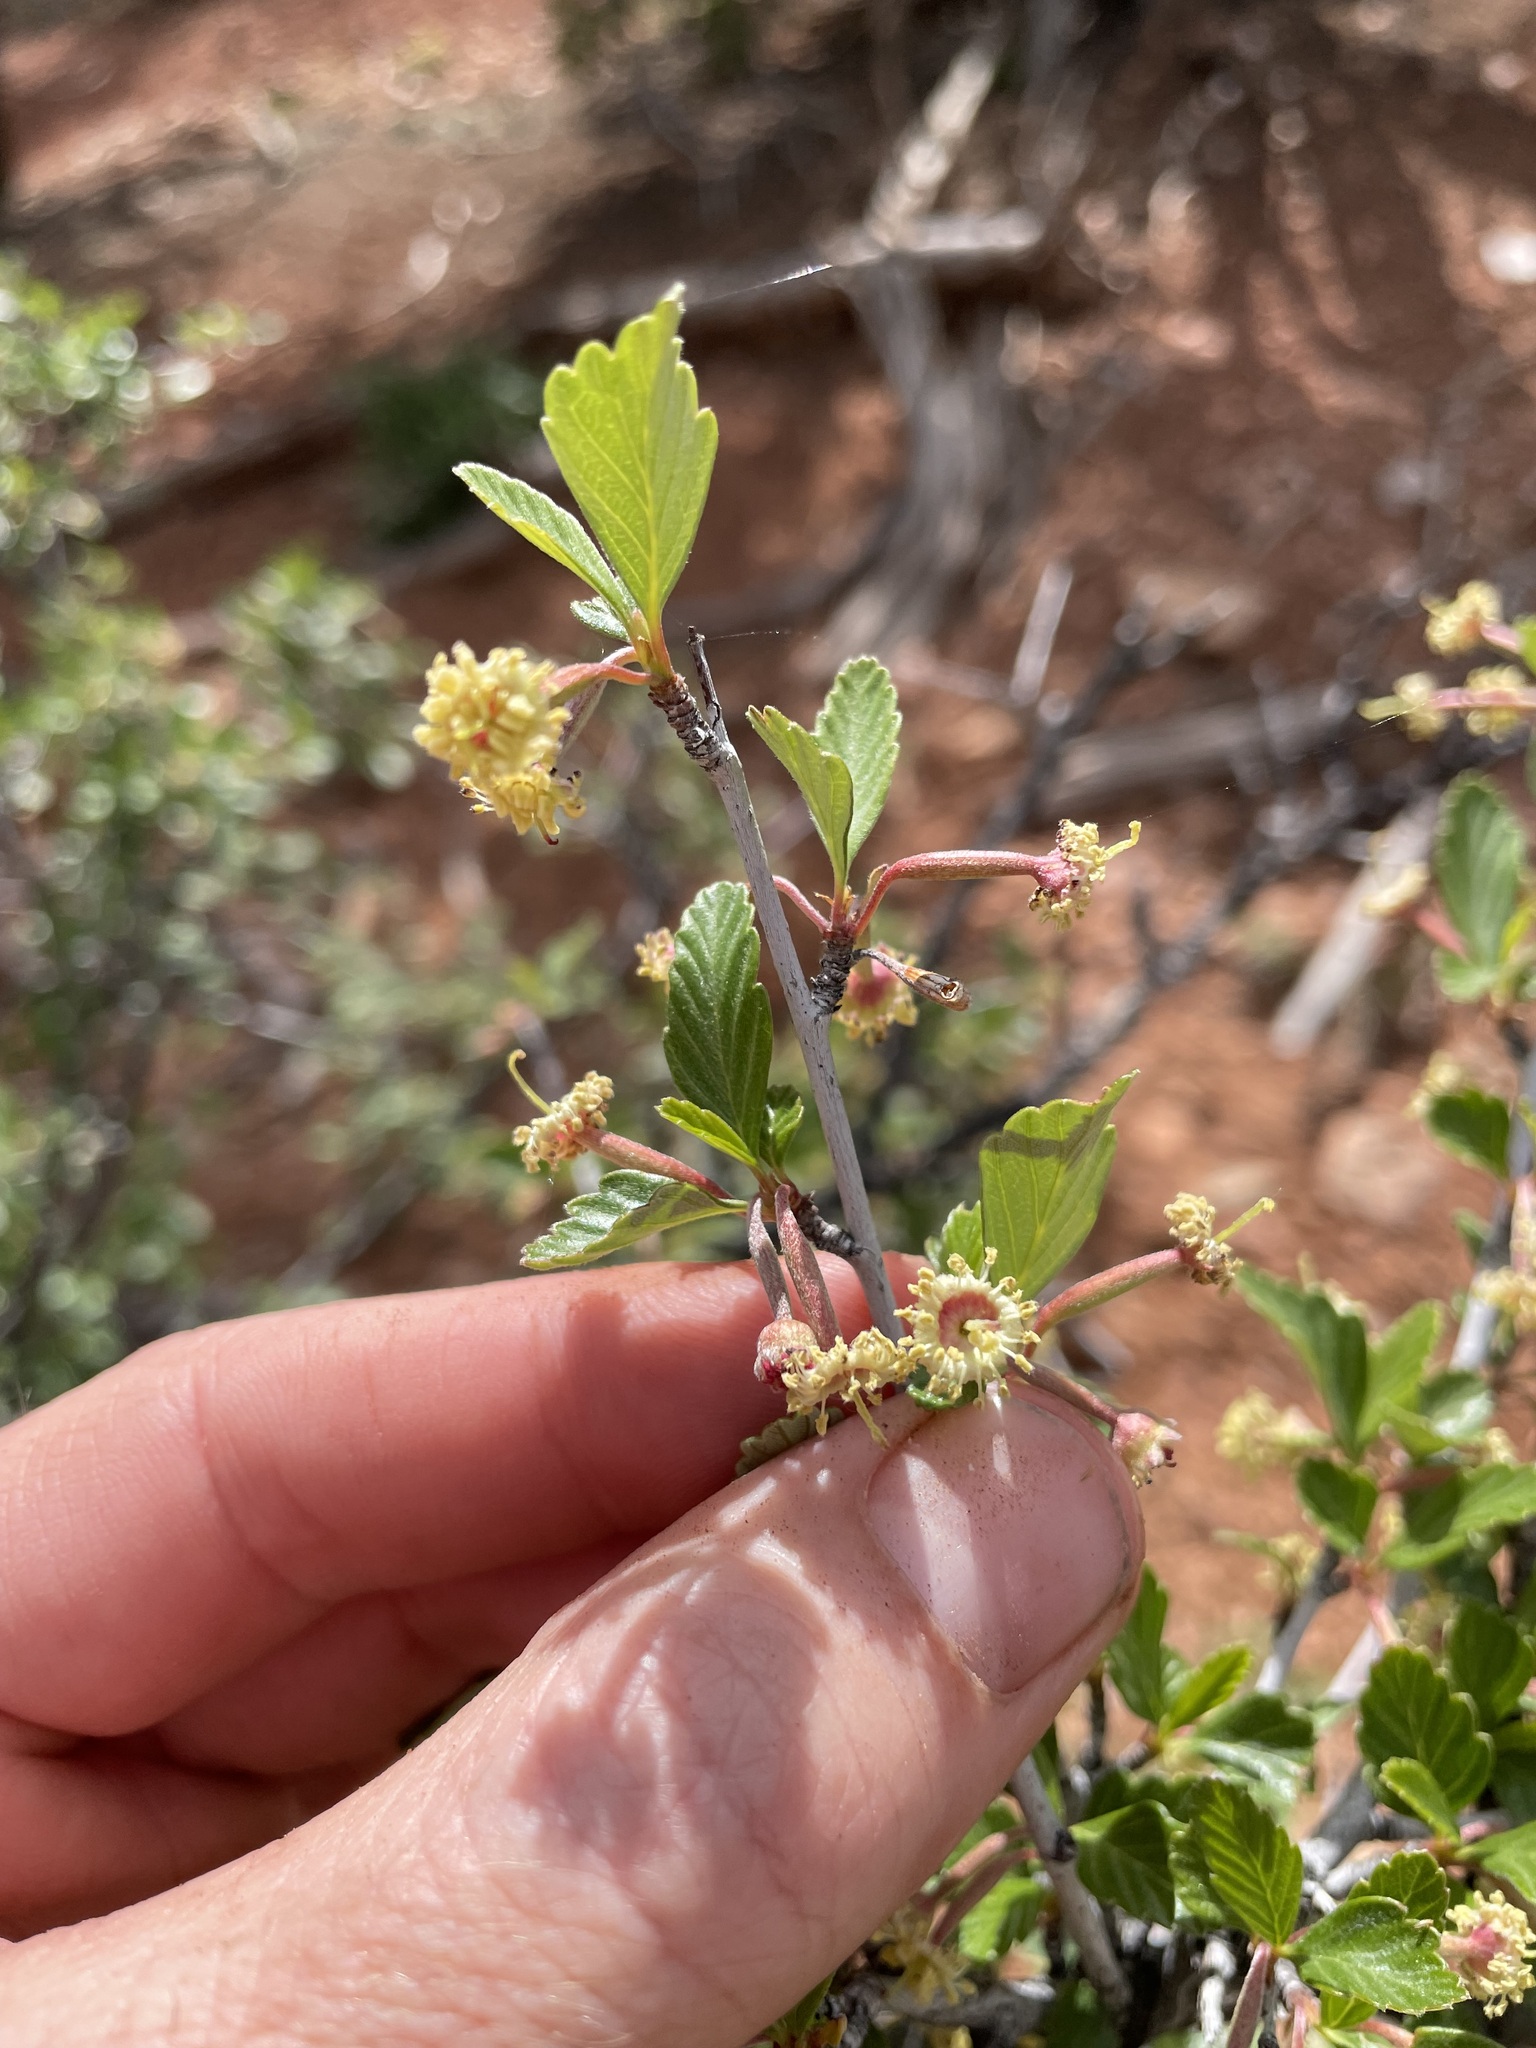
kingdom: Plantae
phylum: Tracheophyta
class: Magnoliopsida
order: Rosales
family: Rosaceae
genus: Cercocarpus
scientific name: Cercocarpus montanus
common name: Alder-leaf cercocarpus
